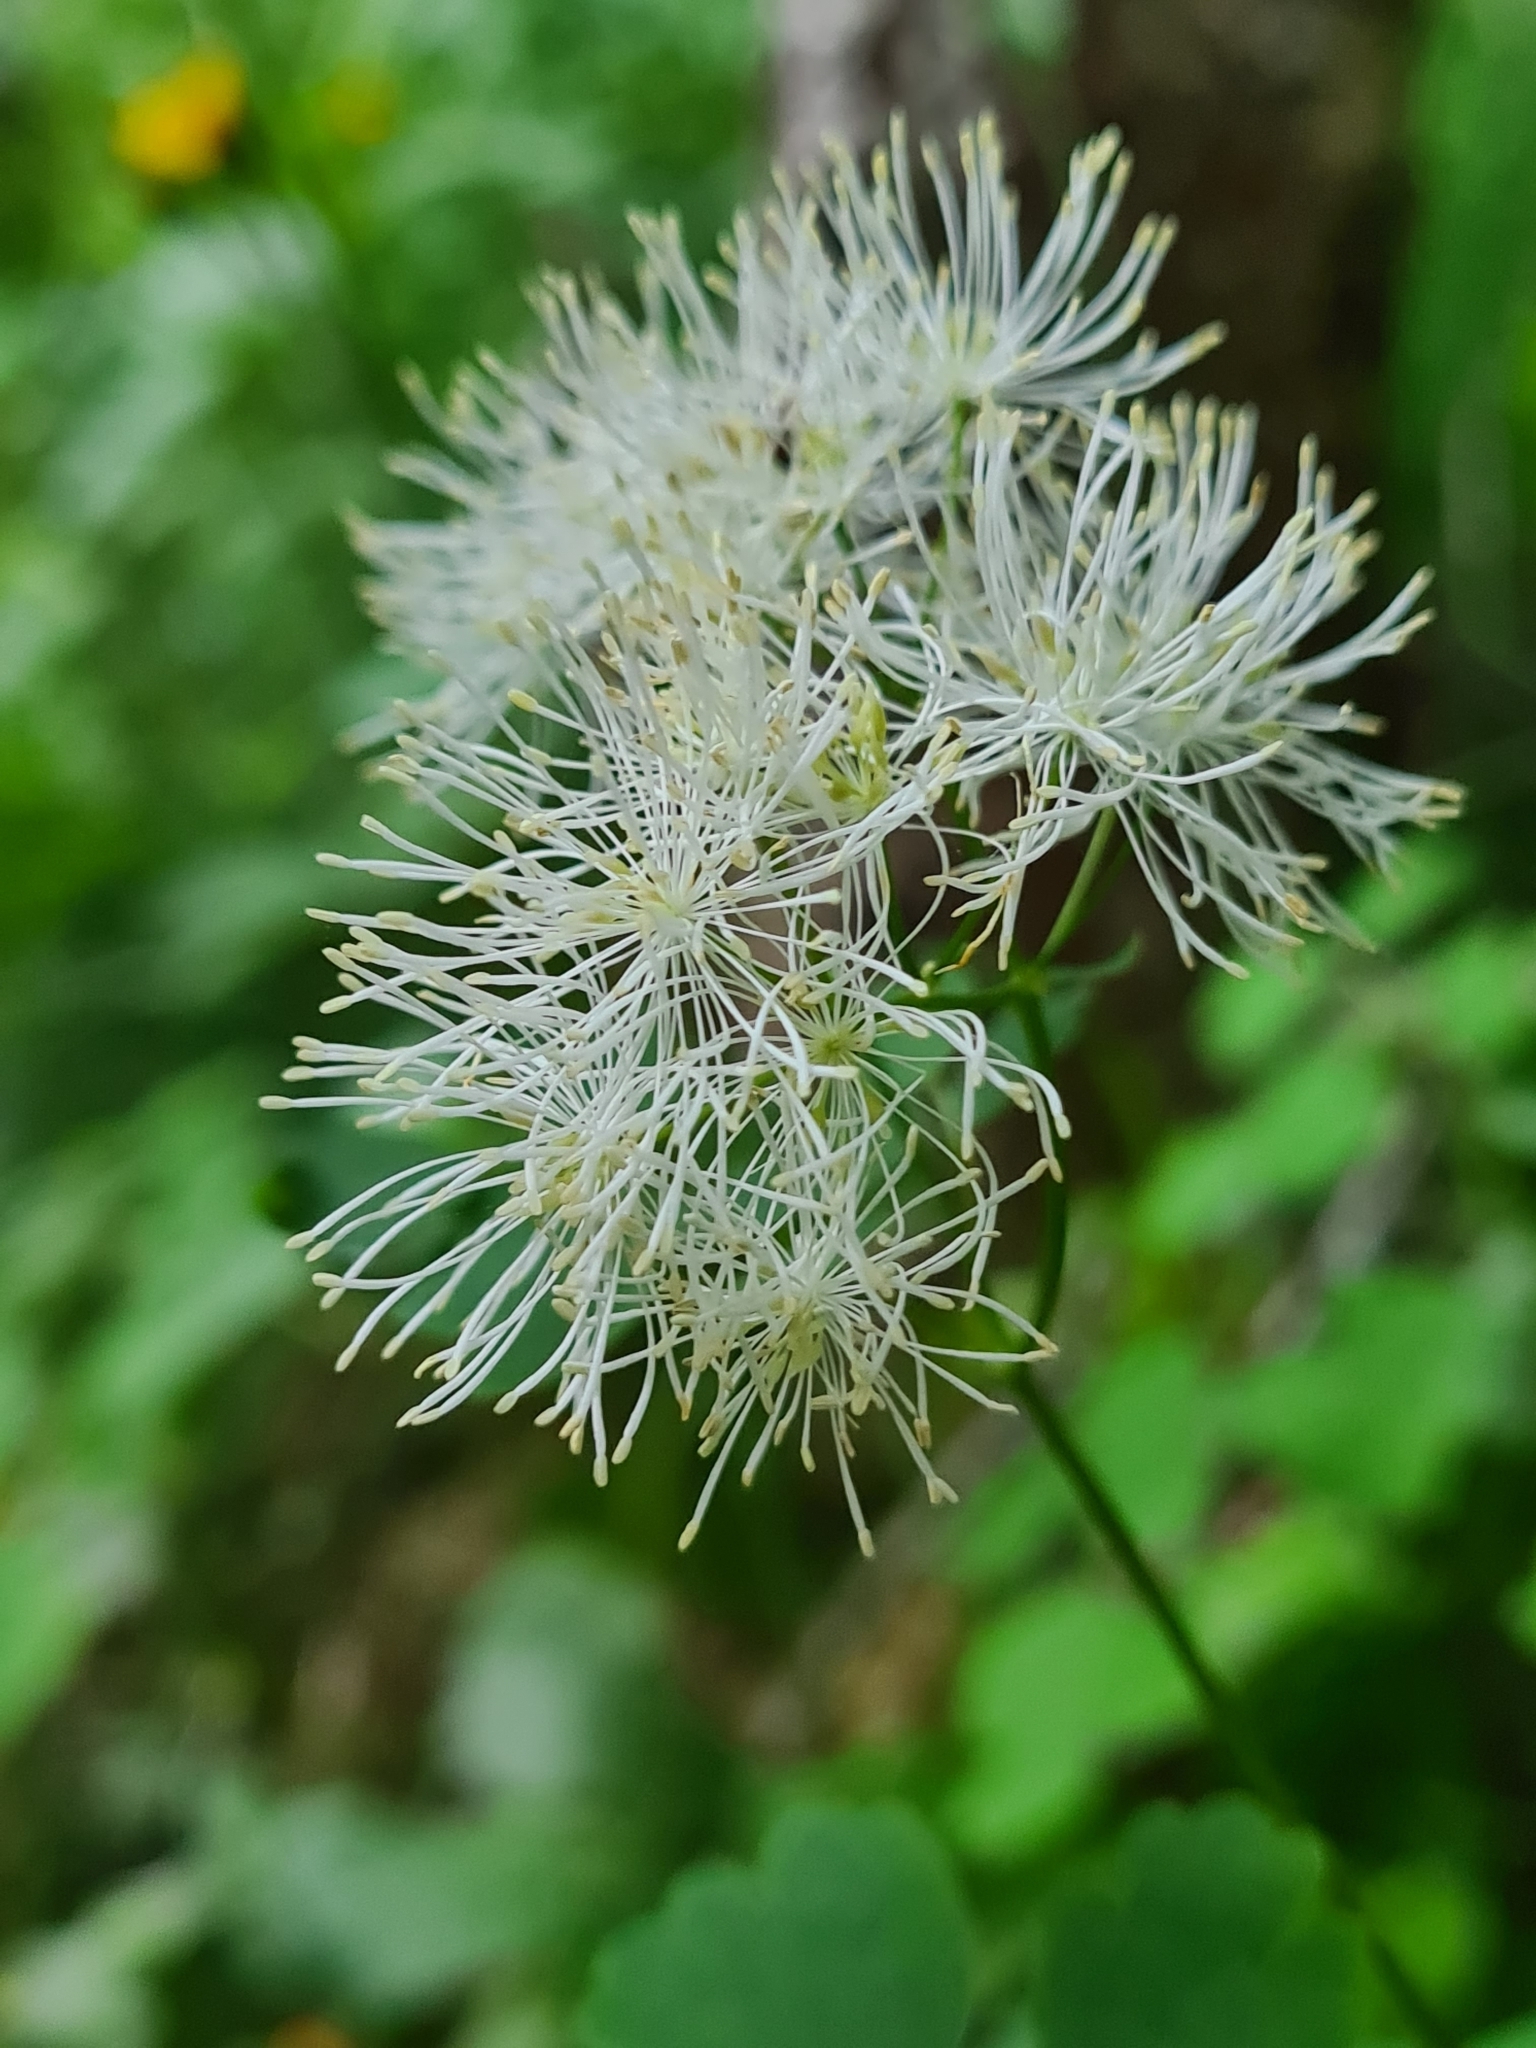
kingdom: Plantae
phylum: Tracheophyta
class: Magnoliopsida
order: Ranunculales
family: Ranunculaceae
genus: Thalictrum
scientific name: Thalictrum aquilegiifolium
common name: French meadow-rue
